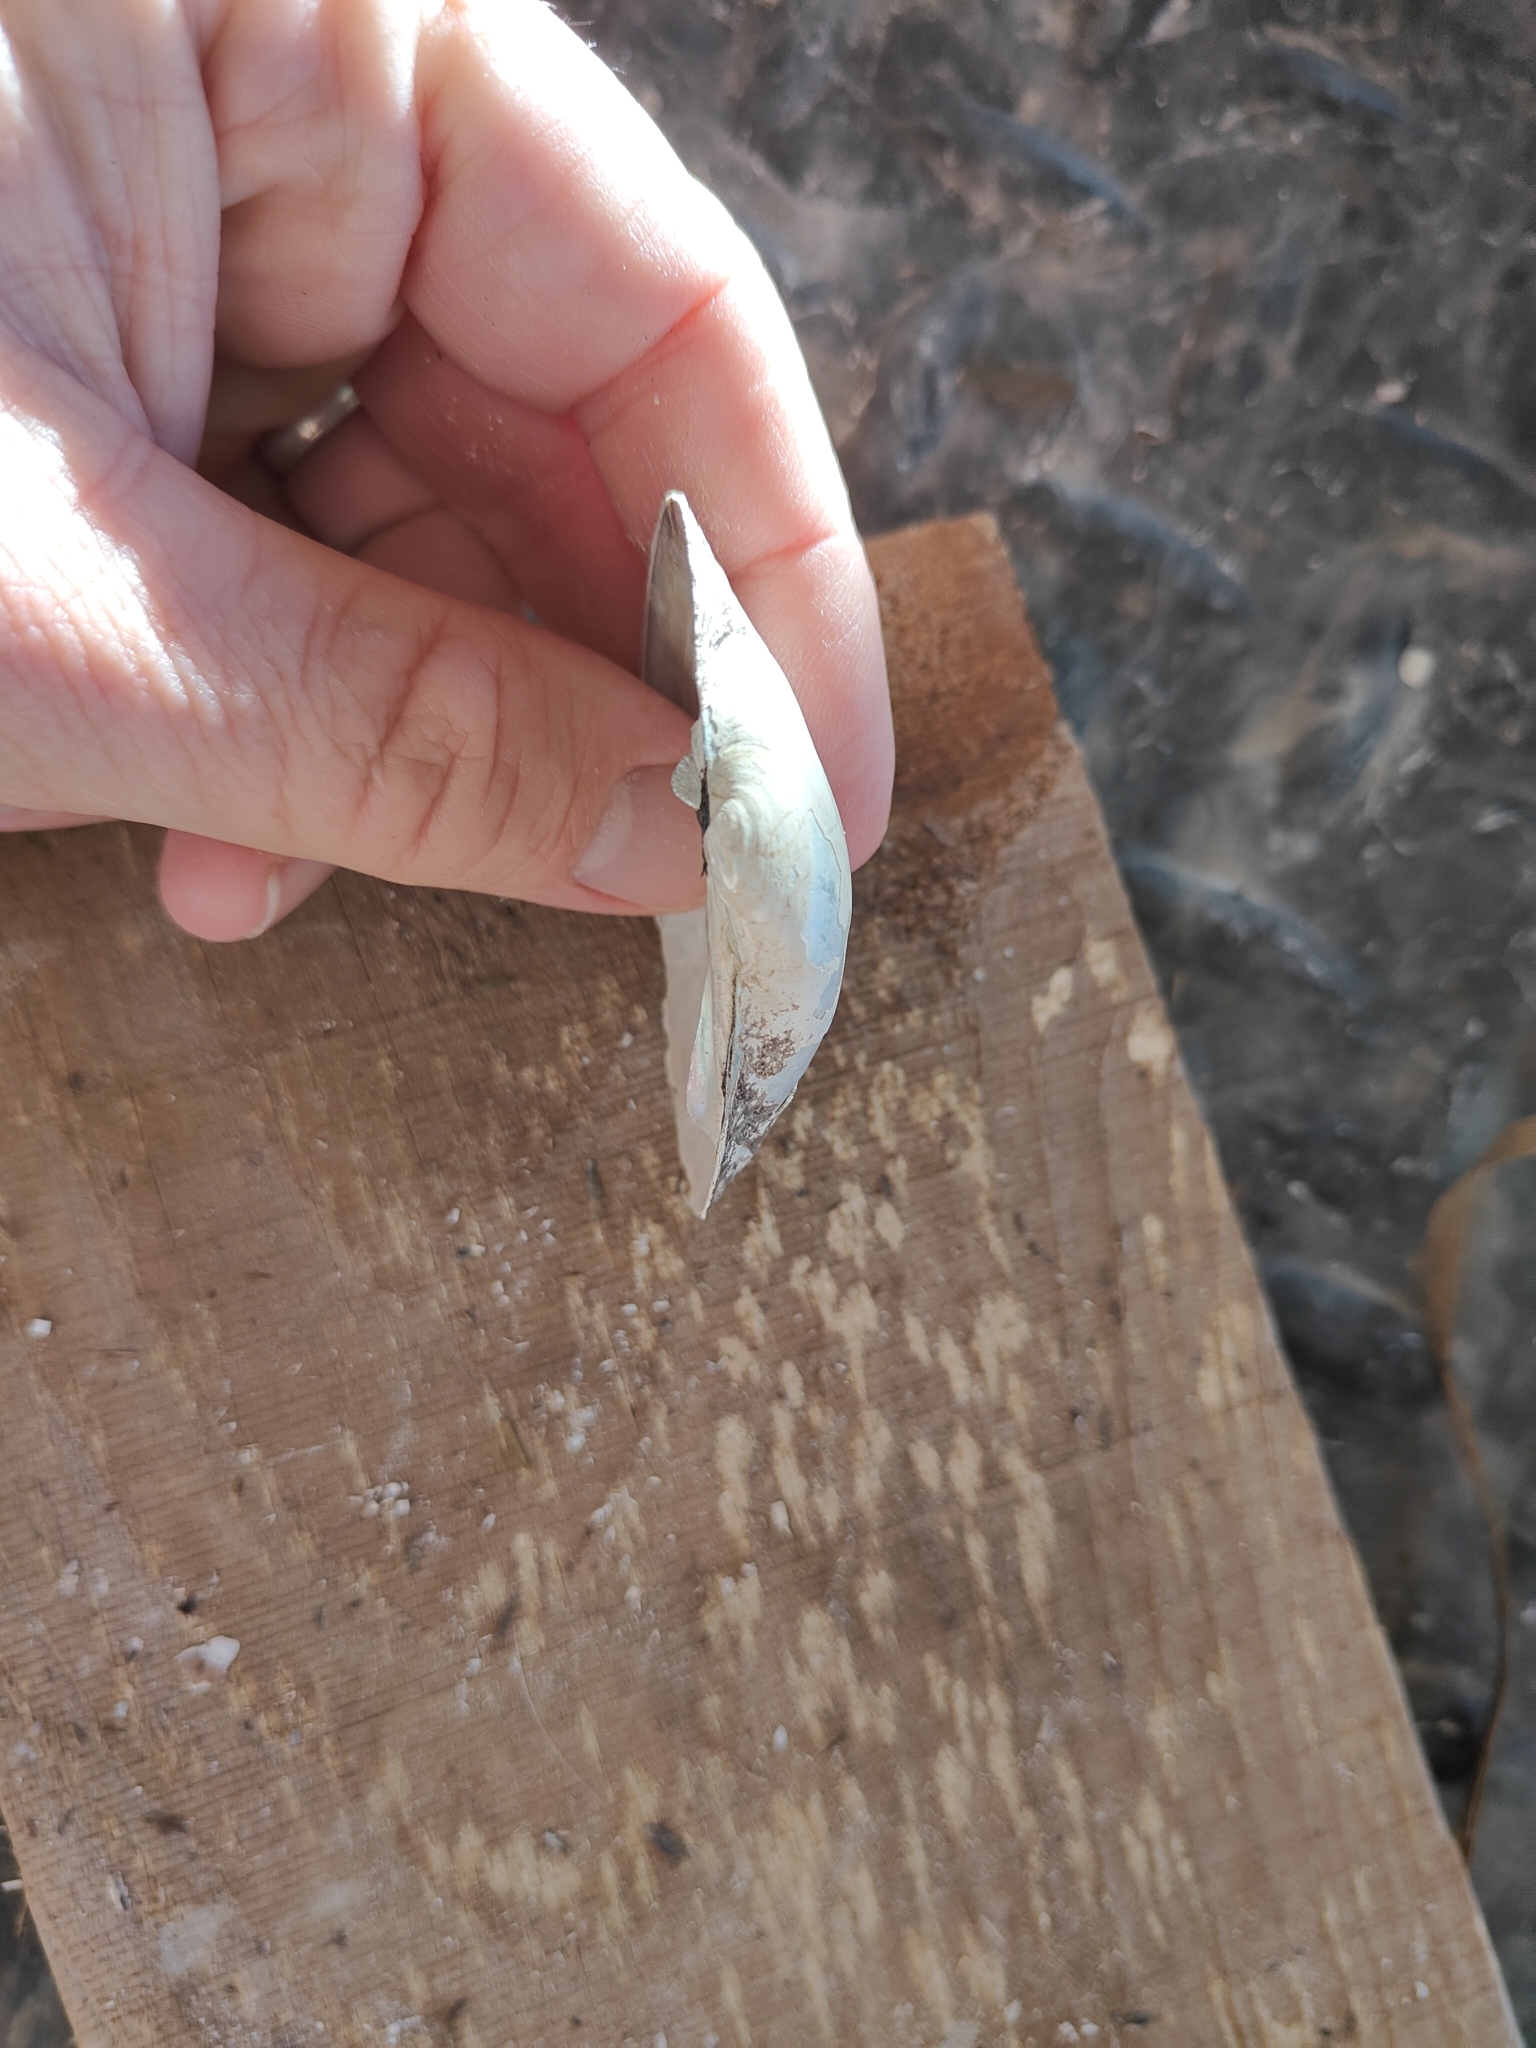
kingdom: Animalia
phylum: Mollusca
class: Bivalvia
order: Unionida
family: Unionidae
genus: Lampsilis
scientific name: Lampsilis cardium
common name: Plain pocketbook
